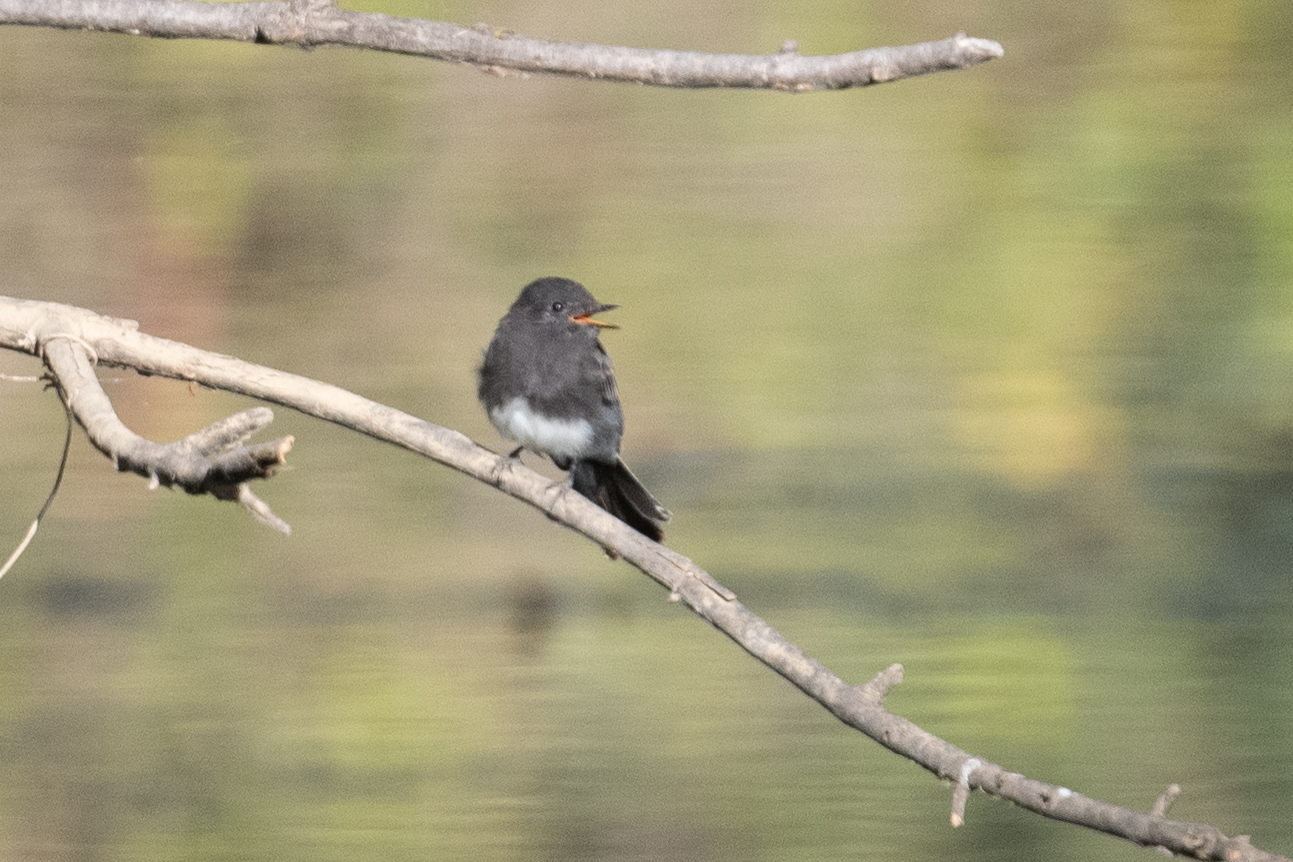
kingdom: Animalia
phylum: Chordata
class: Aves
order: Passeriformes
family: Tyrannidae
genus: Sayornis
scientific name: Sayornis nigricans
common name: Black phoebe
